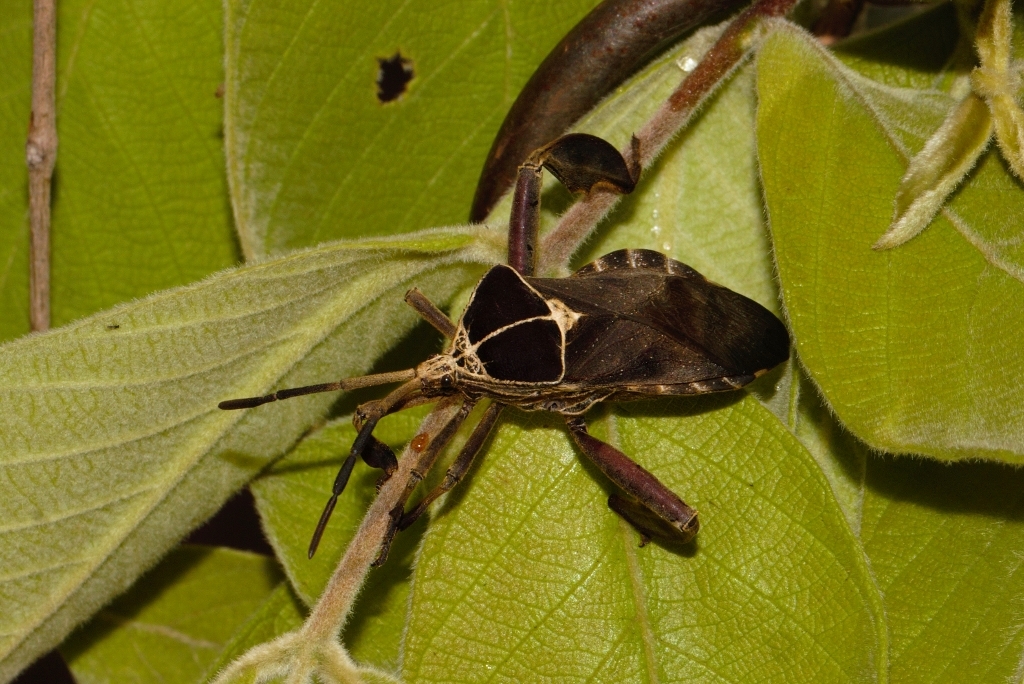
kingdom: Animalia
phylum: Arthropoda
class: Insecta
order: Hemiptera
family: Coreidae
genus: Petascelis
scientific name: Petascelis remipes
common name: Giant twig wilter
